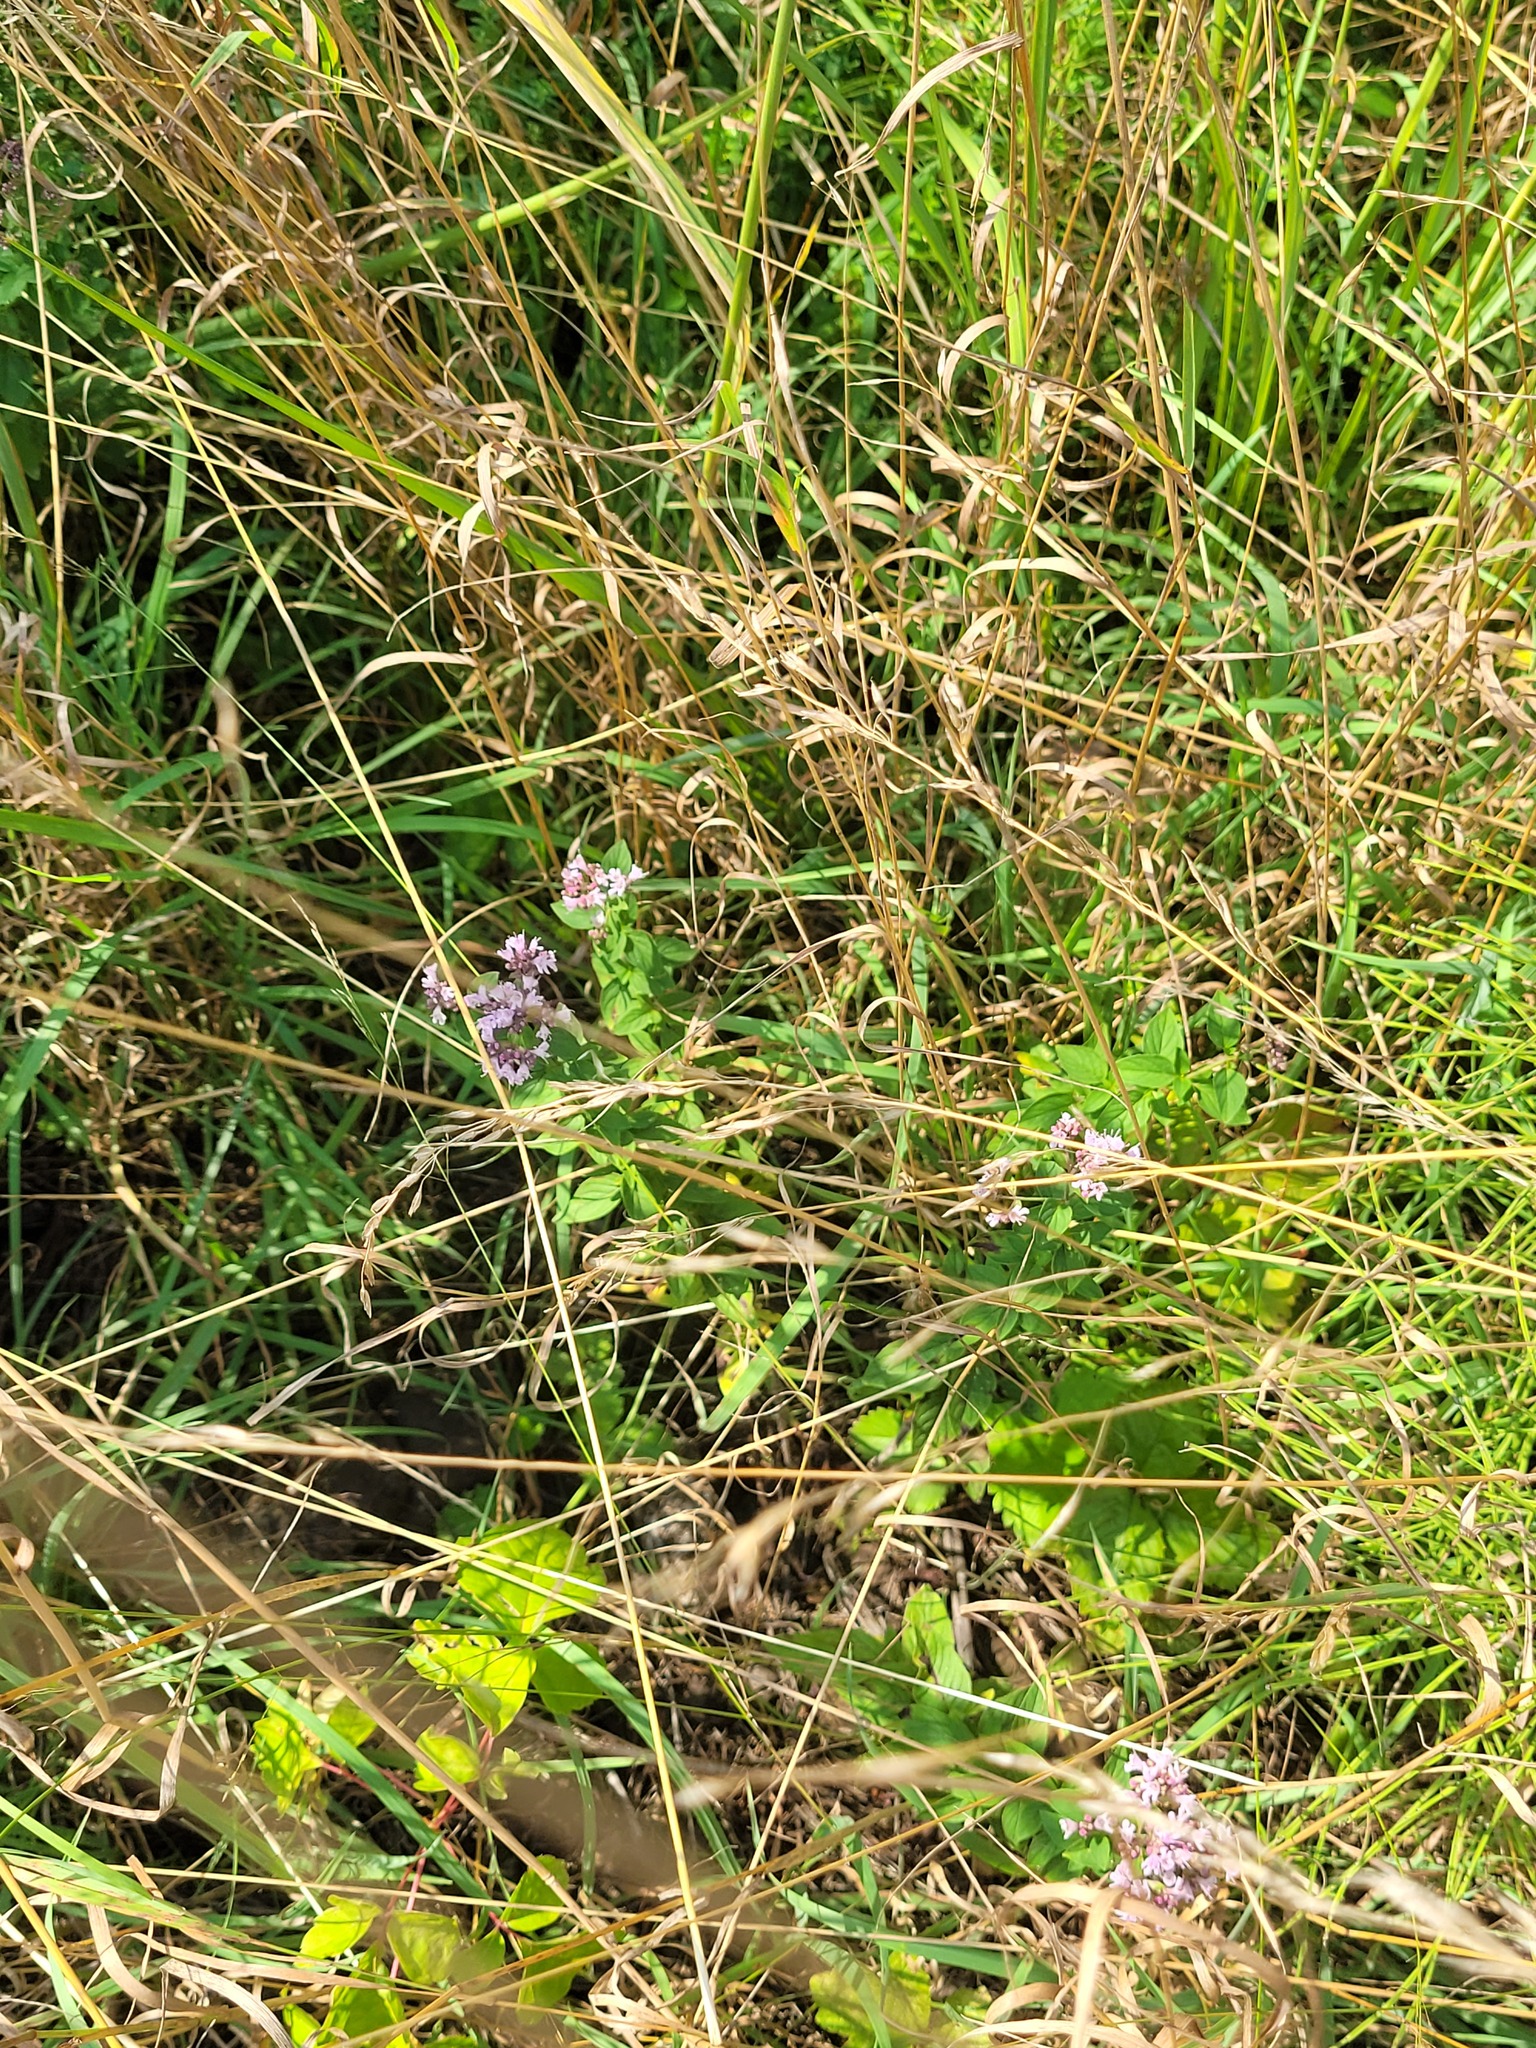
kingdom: Plantae
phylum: Tracheophyta
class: Magnoliopsida
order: Lamiales
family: Lamiaceae
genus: Origanum
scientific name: Origanum vulgare
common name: Wild marjoram
